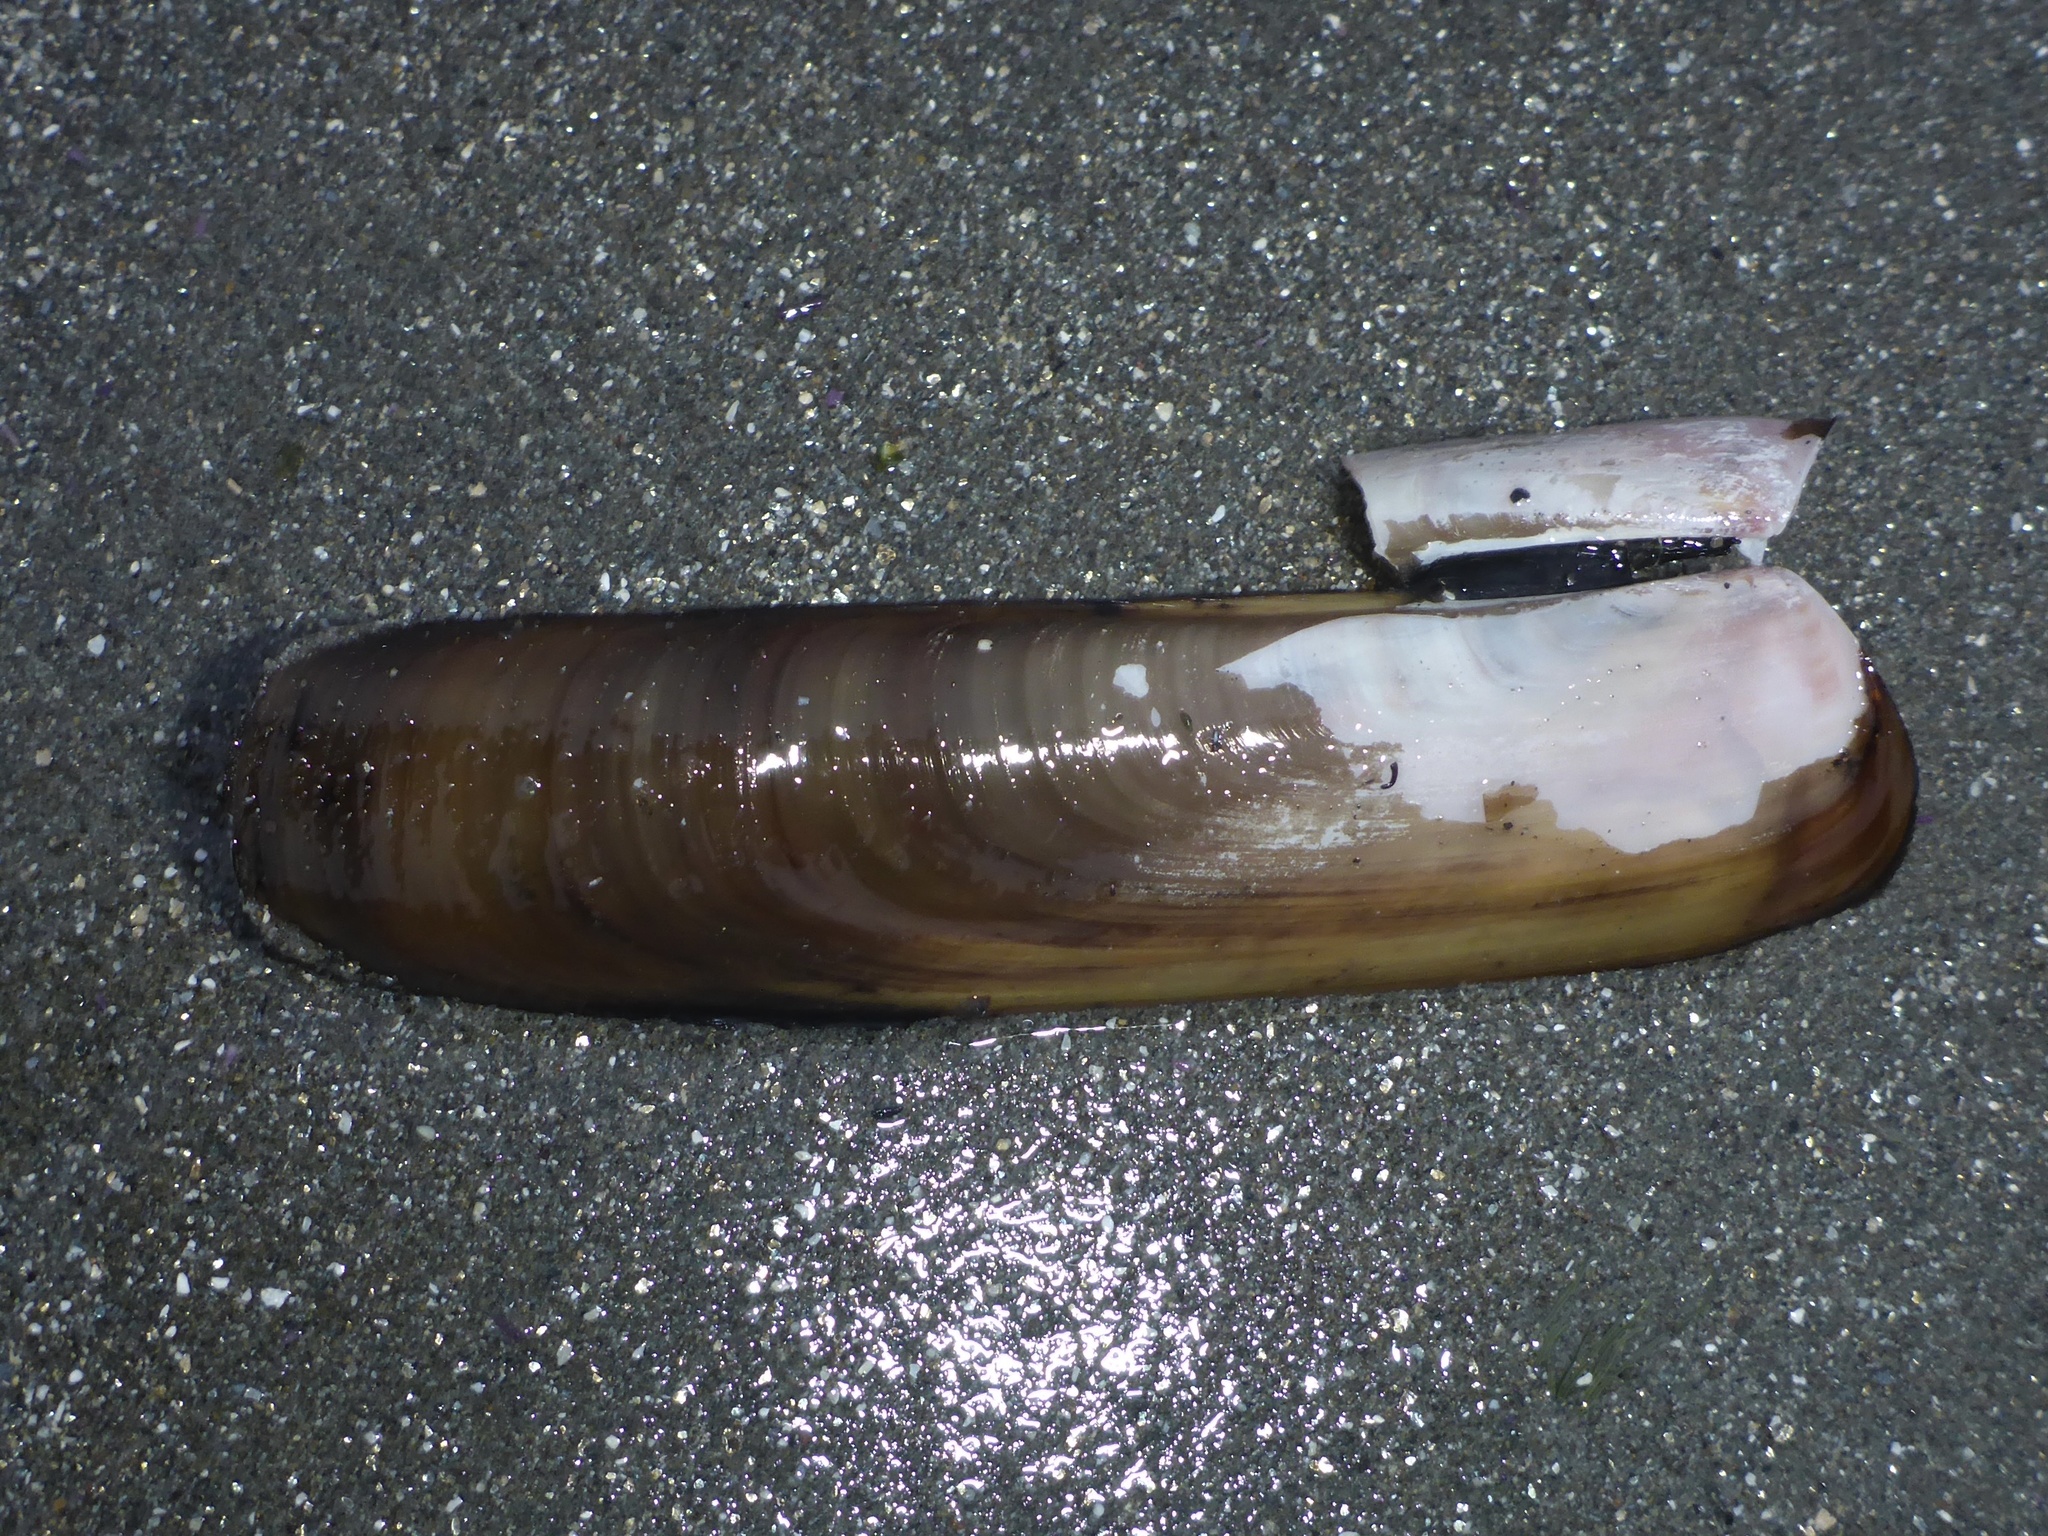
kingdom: Animalia
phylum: Mollusca
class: Bivalvia
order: Adapedonta
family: Solenidae
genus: Solen
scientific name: Solen sicarius
